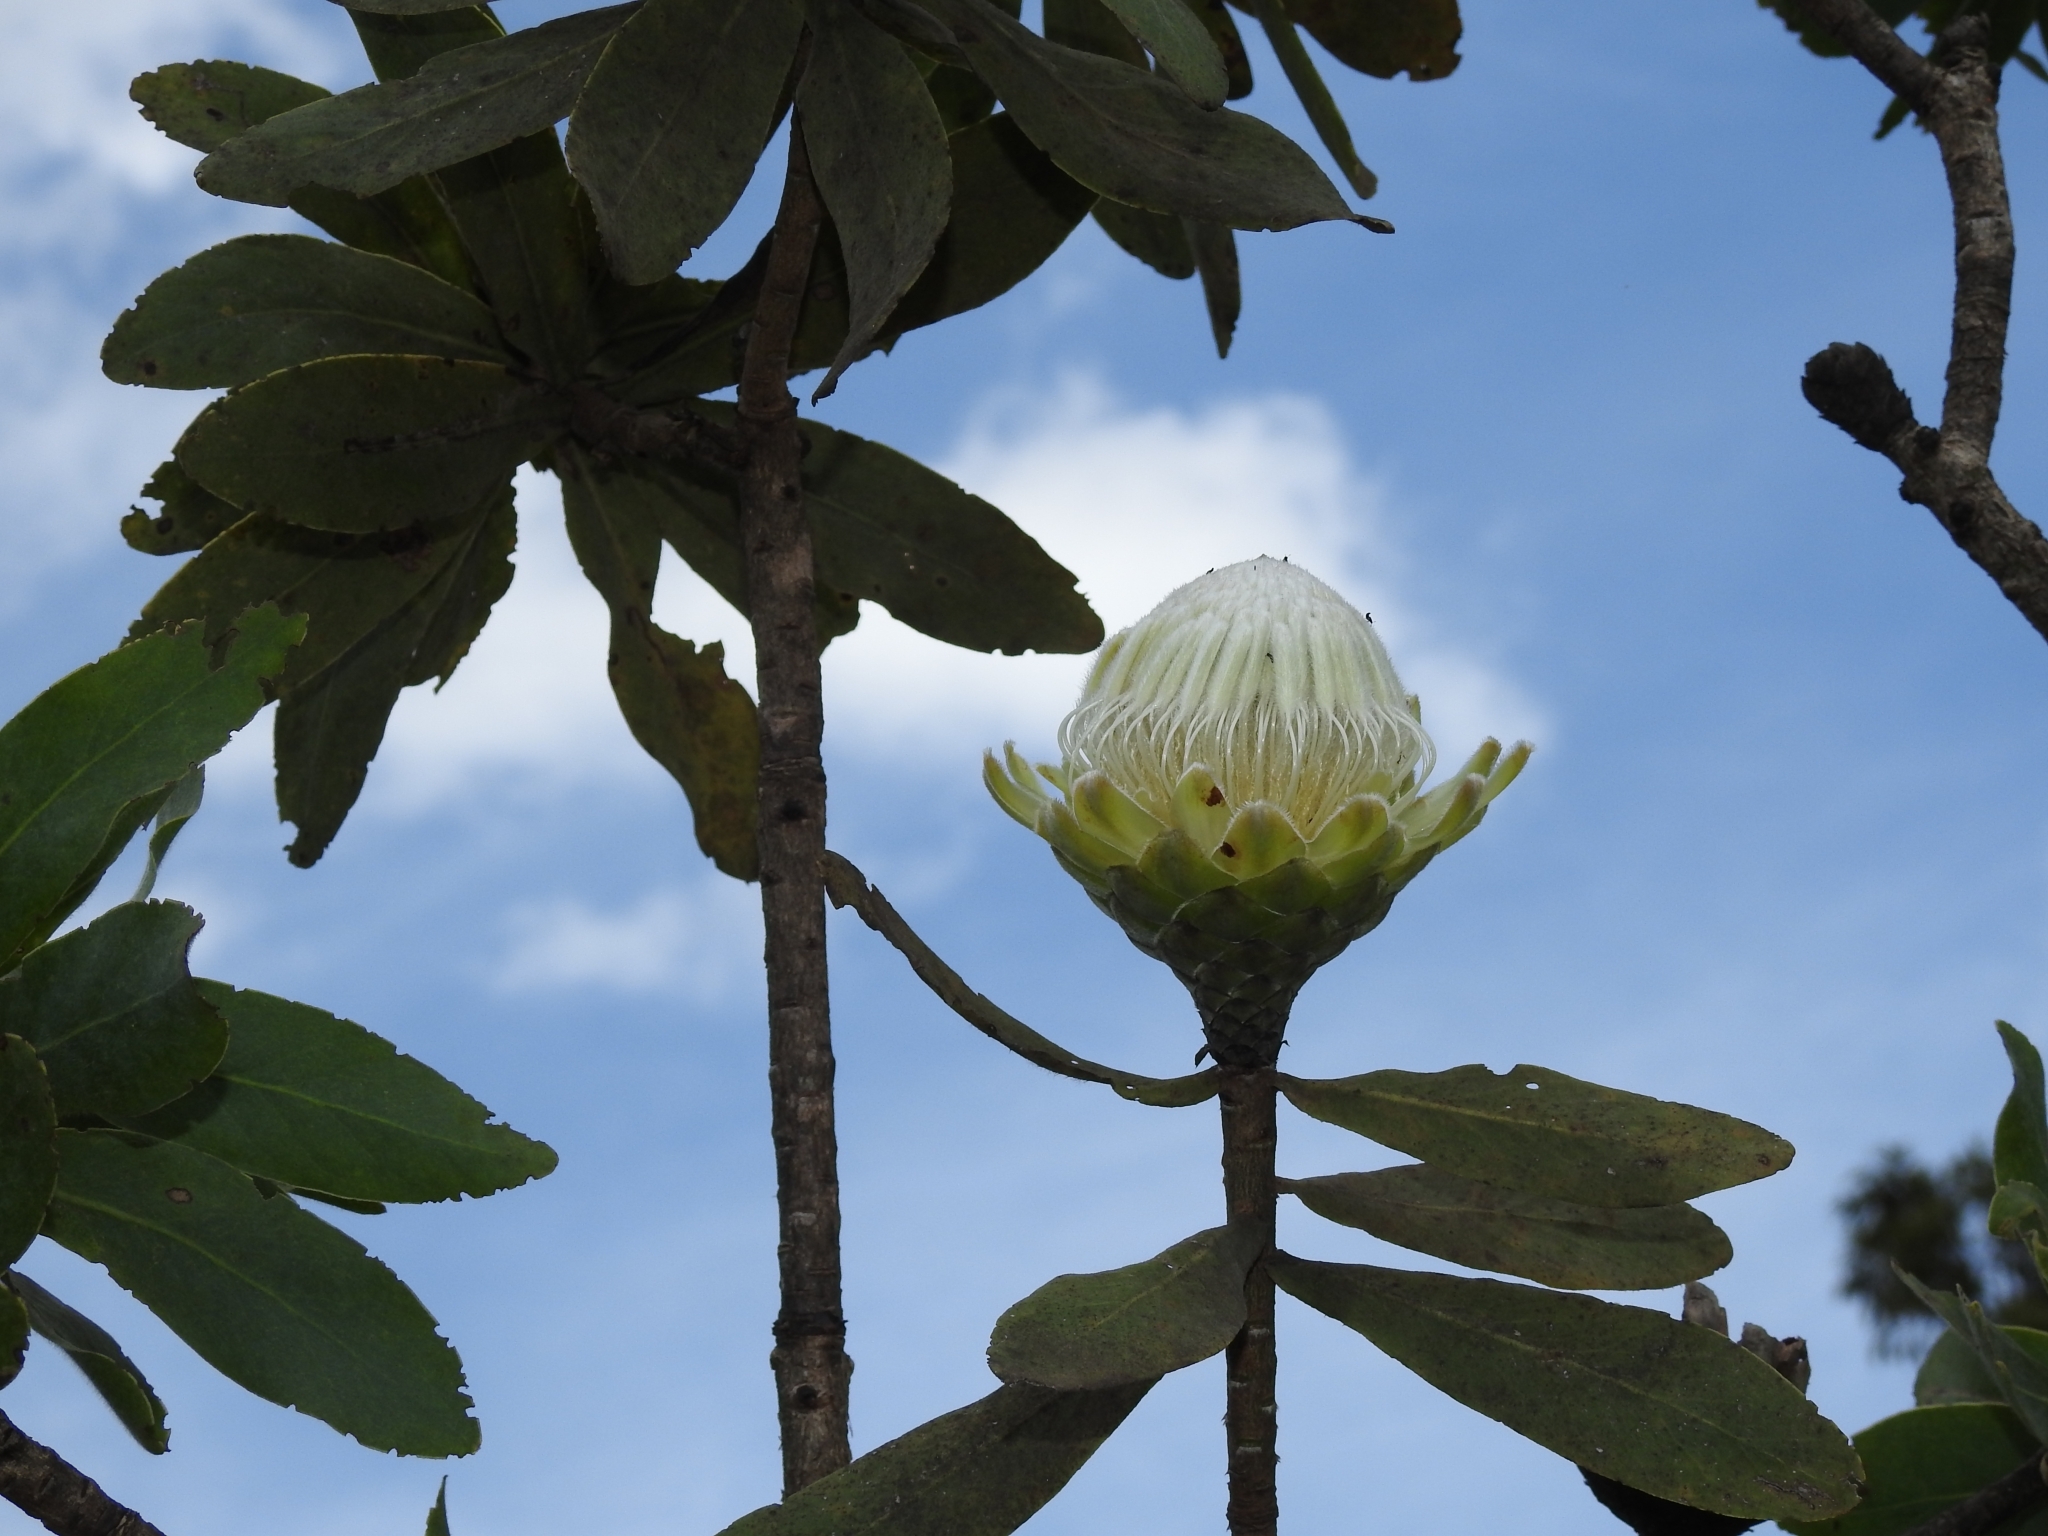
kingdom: Plantae
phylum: Tracheophyta
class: Magnoliopsida
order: Proteales
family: Proteaceae
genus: Protea
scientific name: Protea gaguedi
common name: African protea
